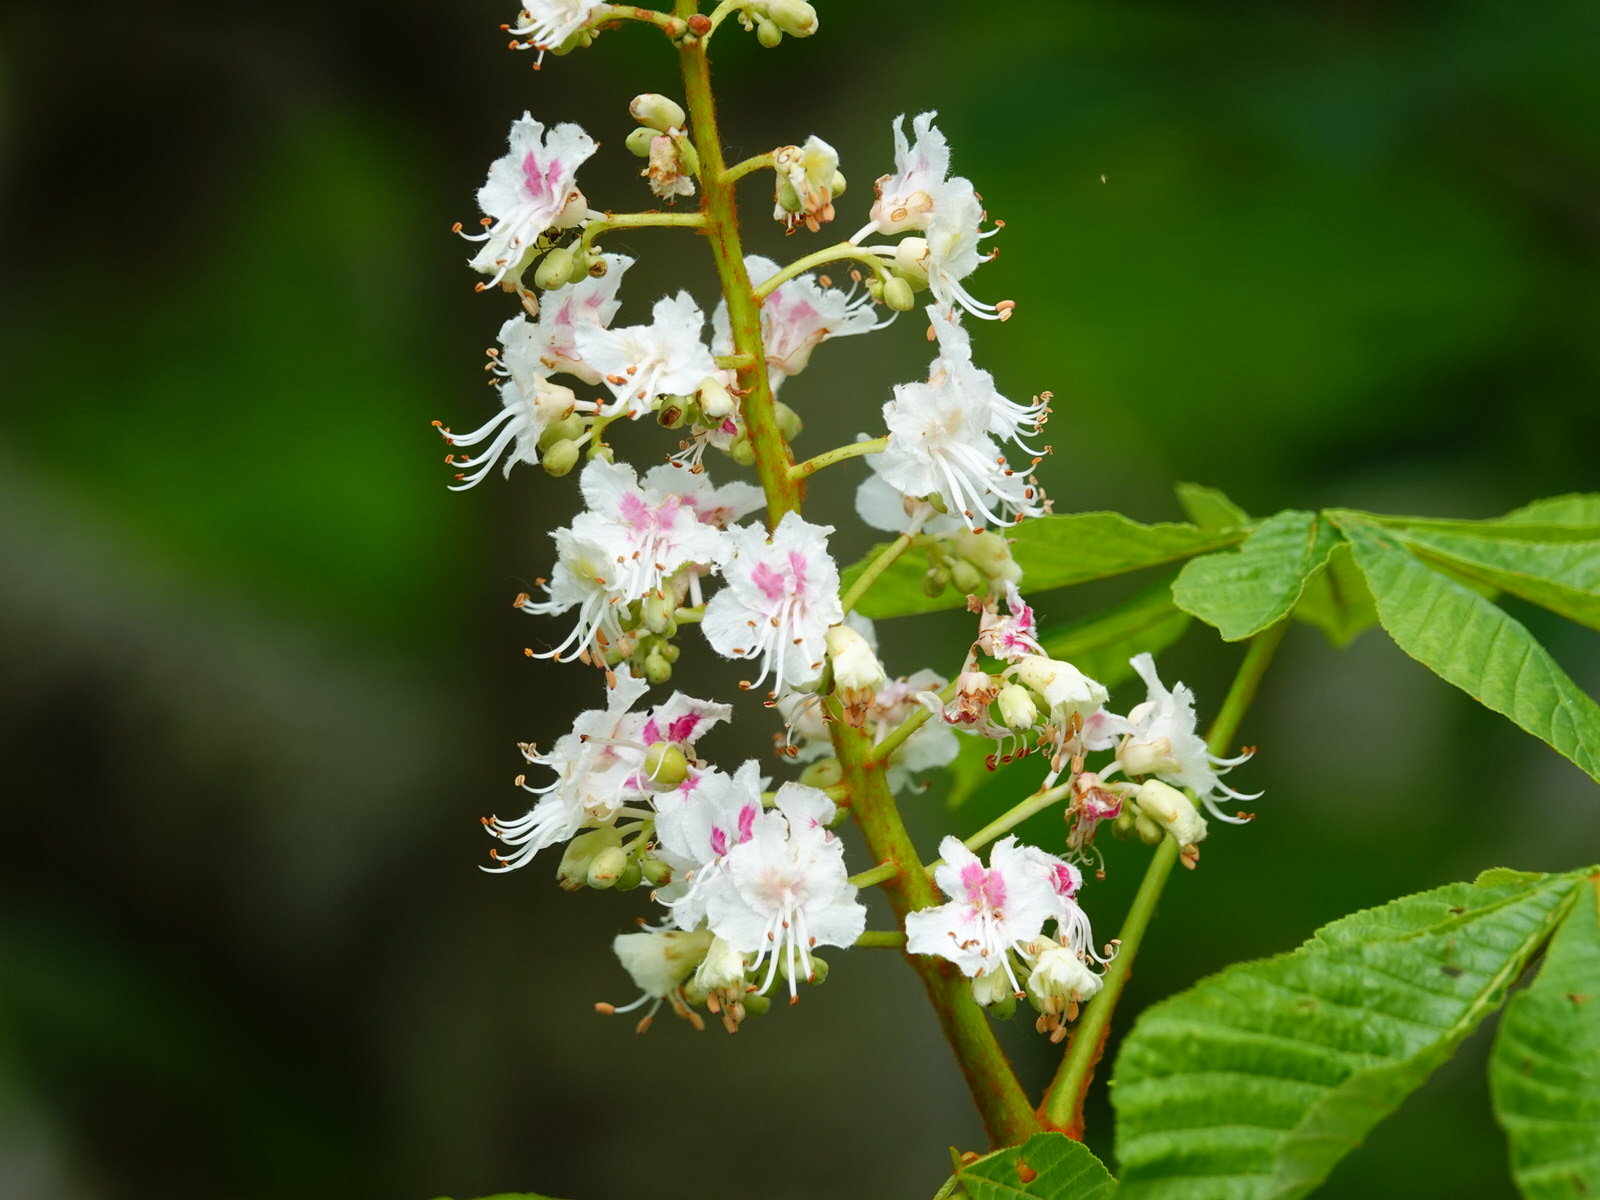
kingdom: Plantae
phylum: Tracheophyta
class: Magnoliopsida
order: Sapindales
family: Sapindaceae
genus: Aesculus
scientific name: Aesculus hippocastanum
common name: Horse-chestnut
